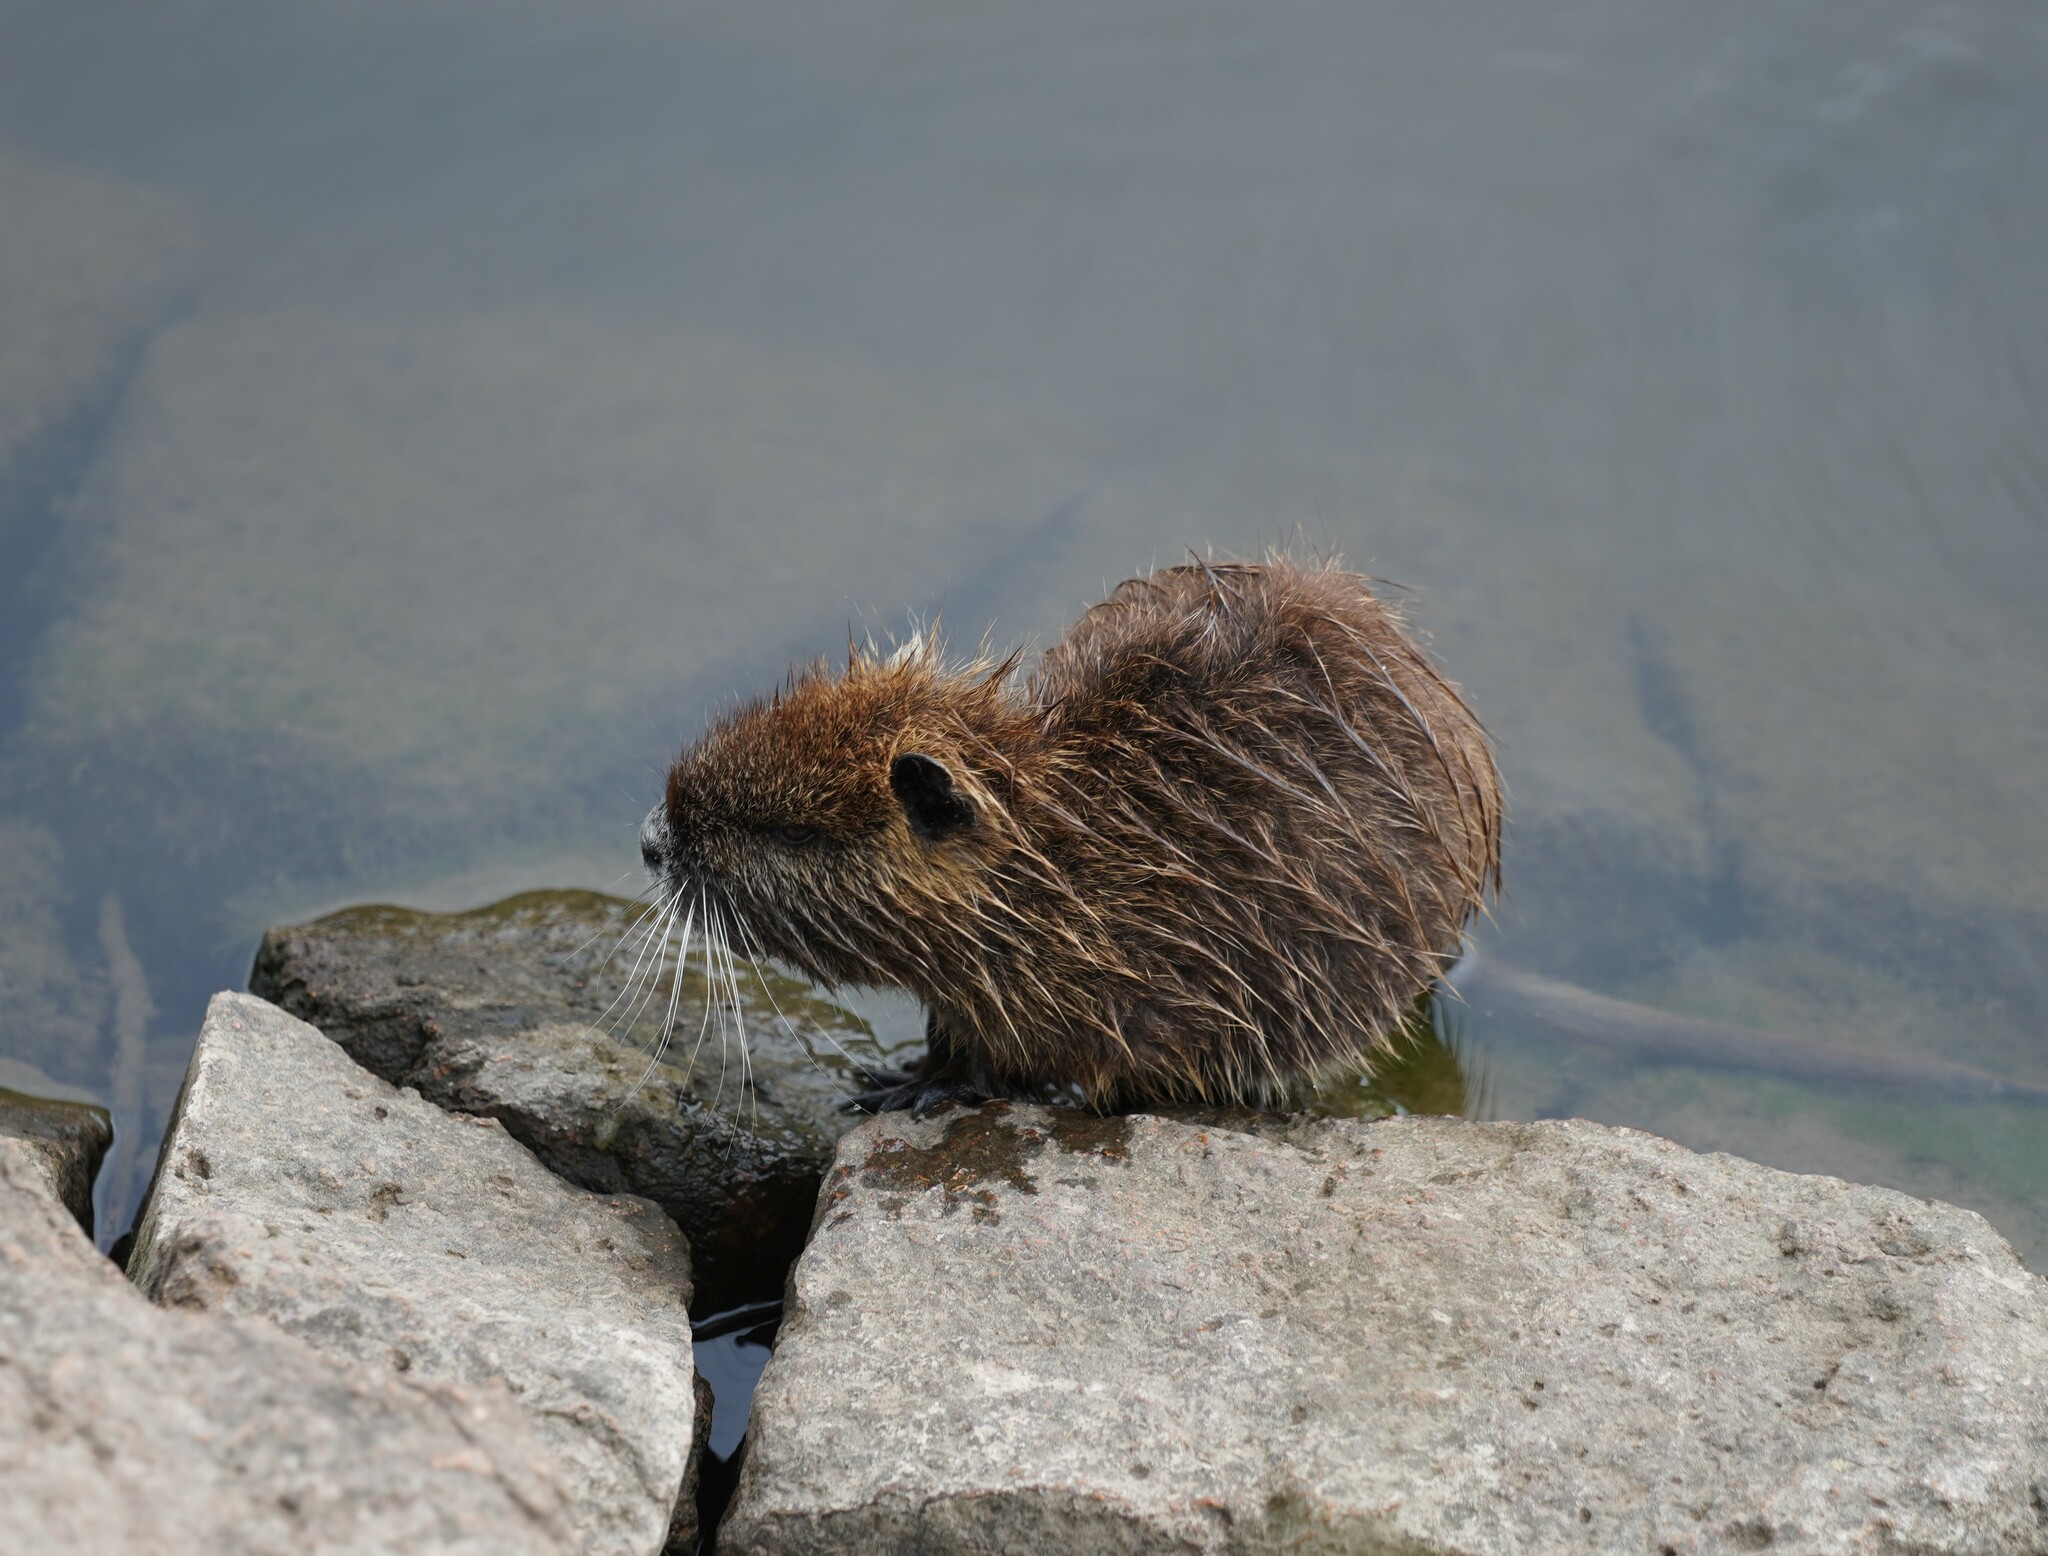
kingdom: Animalia
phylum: Chordata
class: Mammalia
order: Rodentia
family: Myocastoridae
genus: Myocastor
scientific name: Myocastor coypus
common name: Coypu
